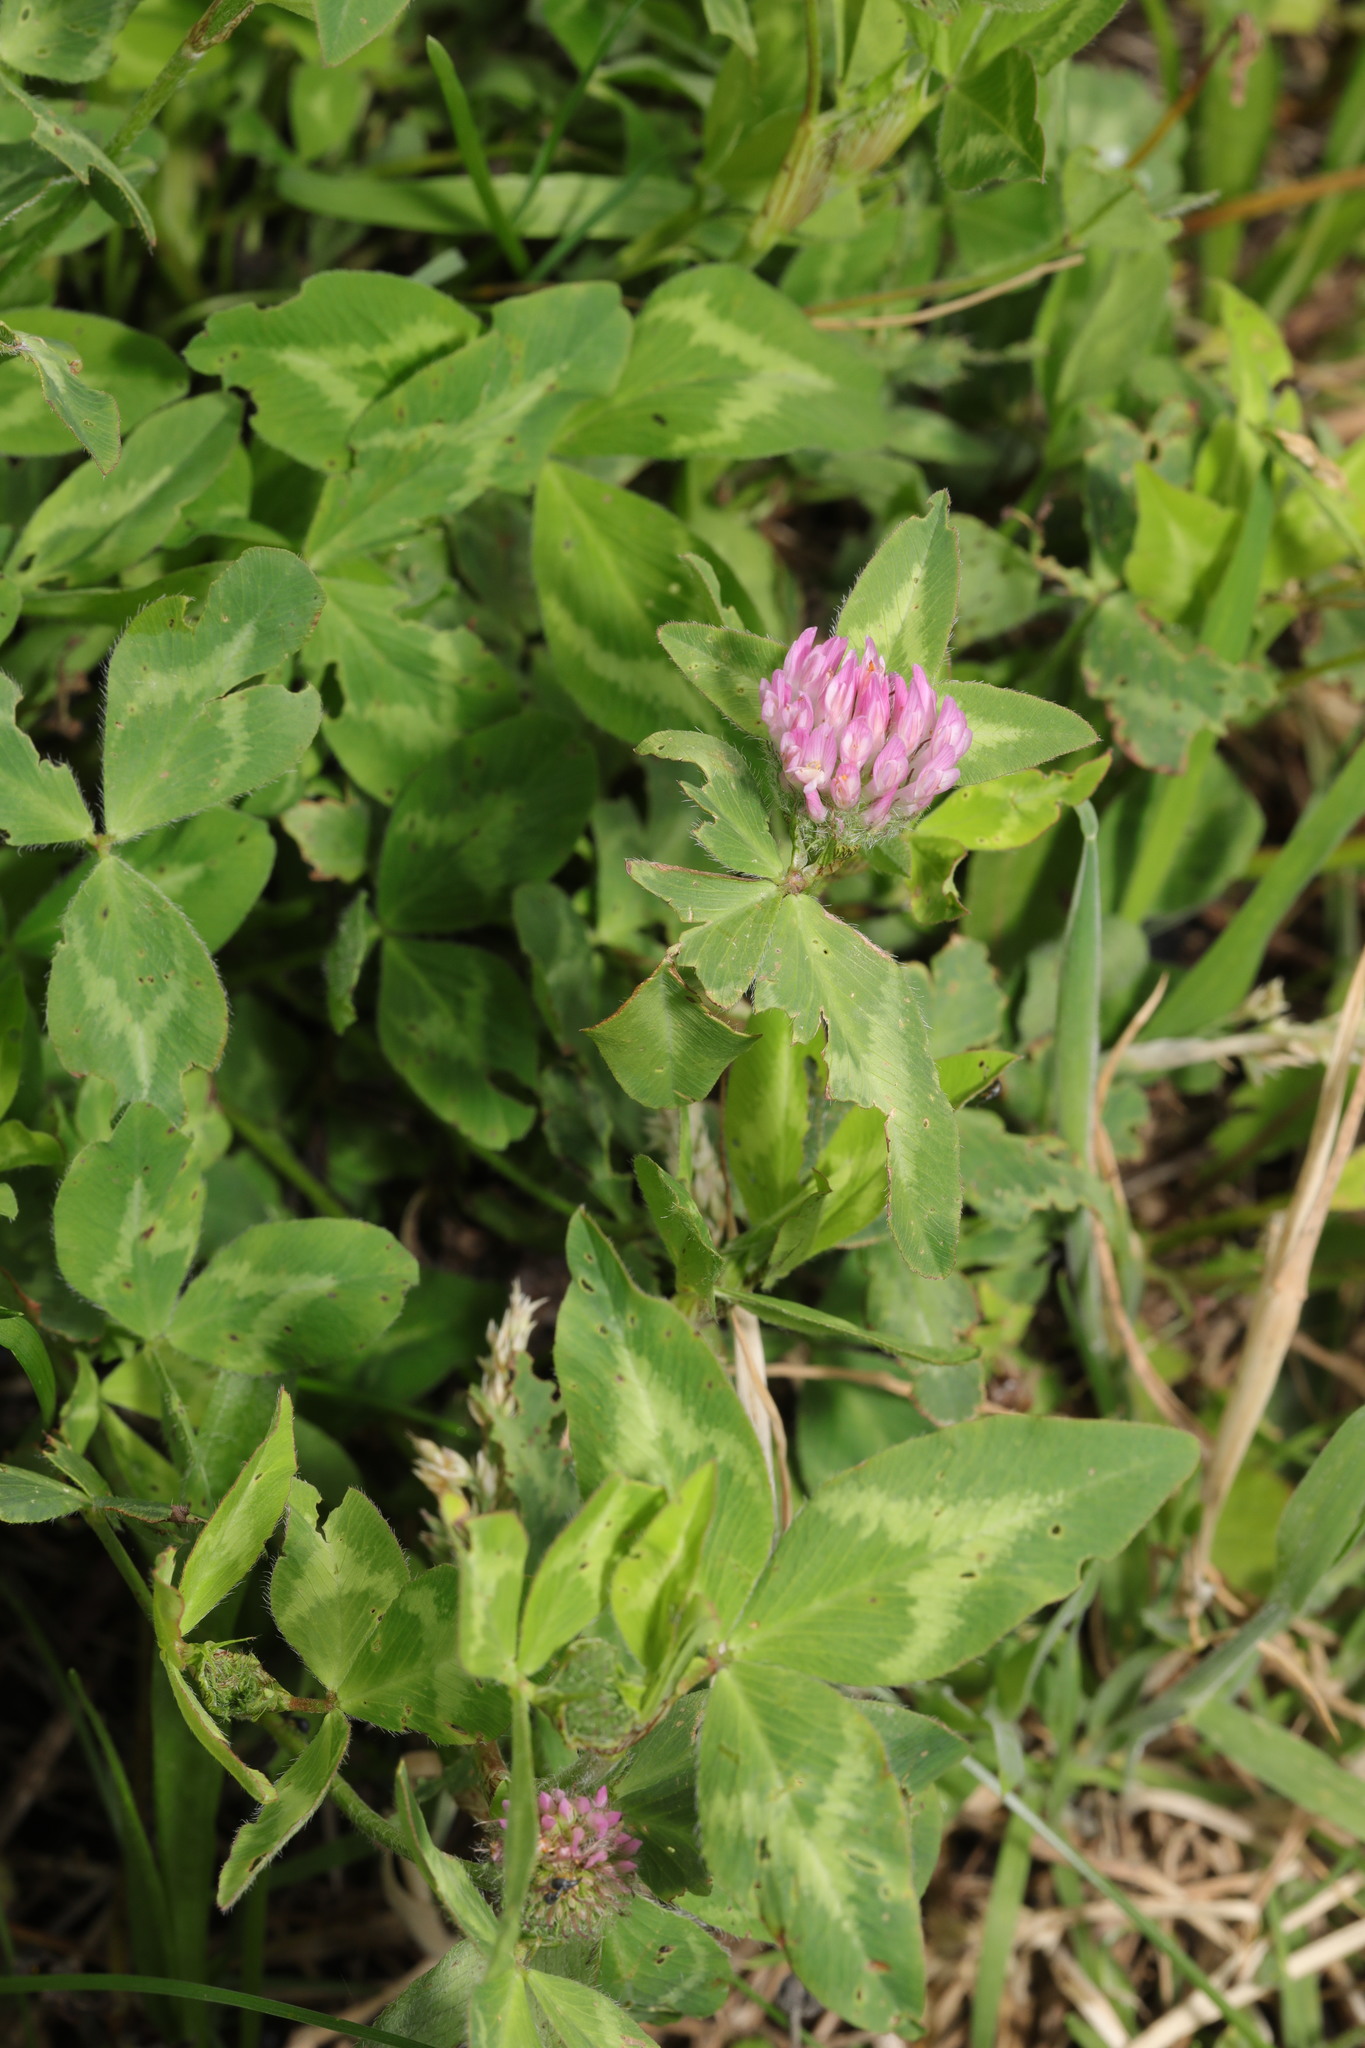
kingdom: Plantae
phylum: Tracheophyta
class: Magnoliopsida
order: Fabales
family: Fabaceae
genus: Trifolium
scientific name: Trifolium pratense
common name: Red clover
